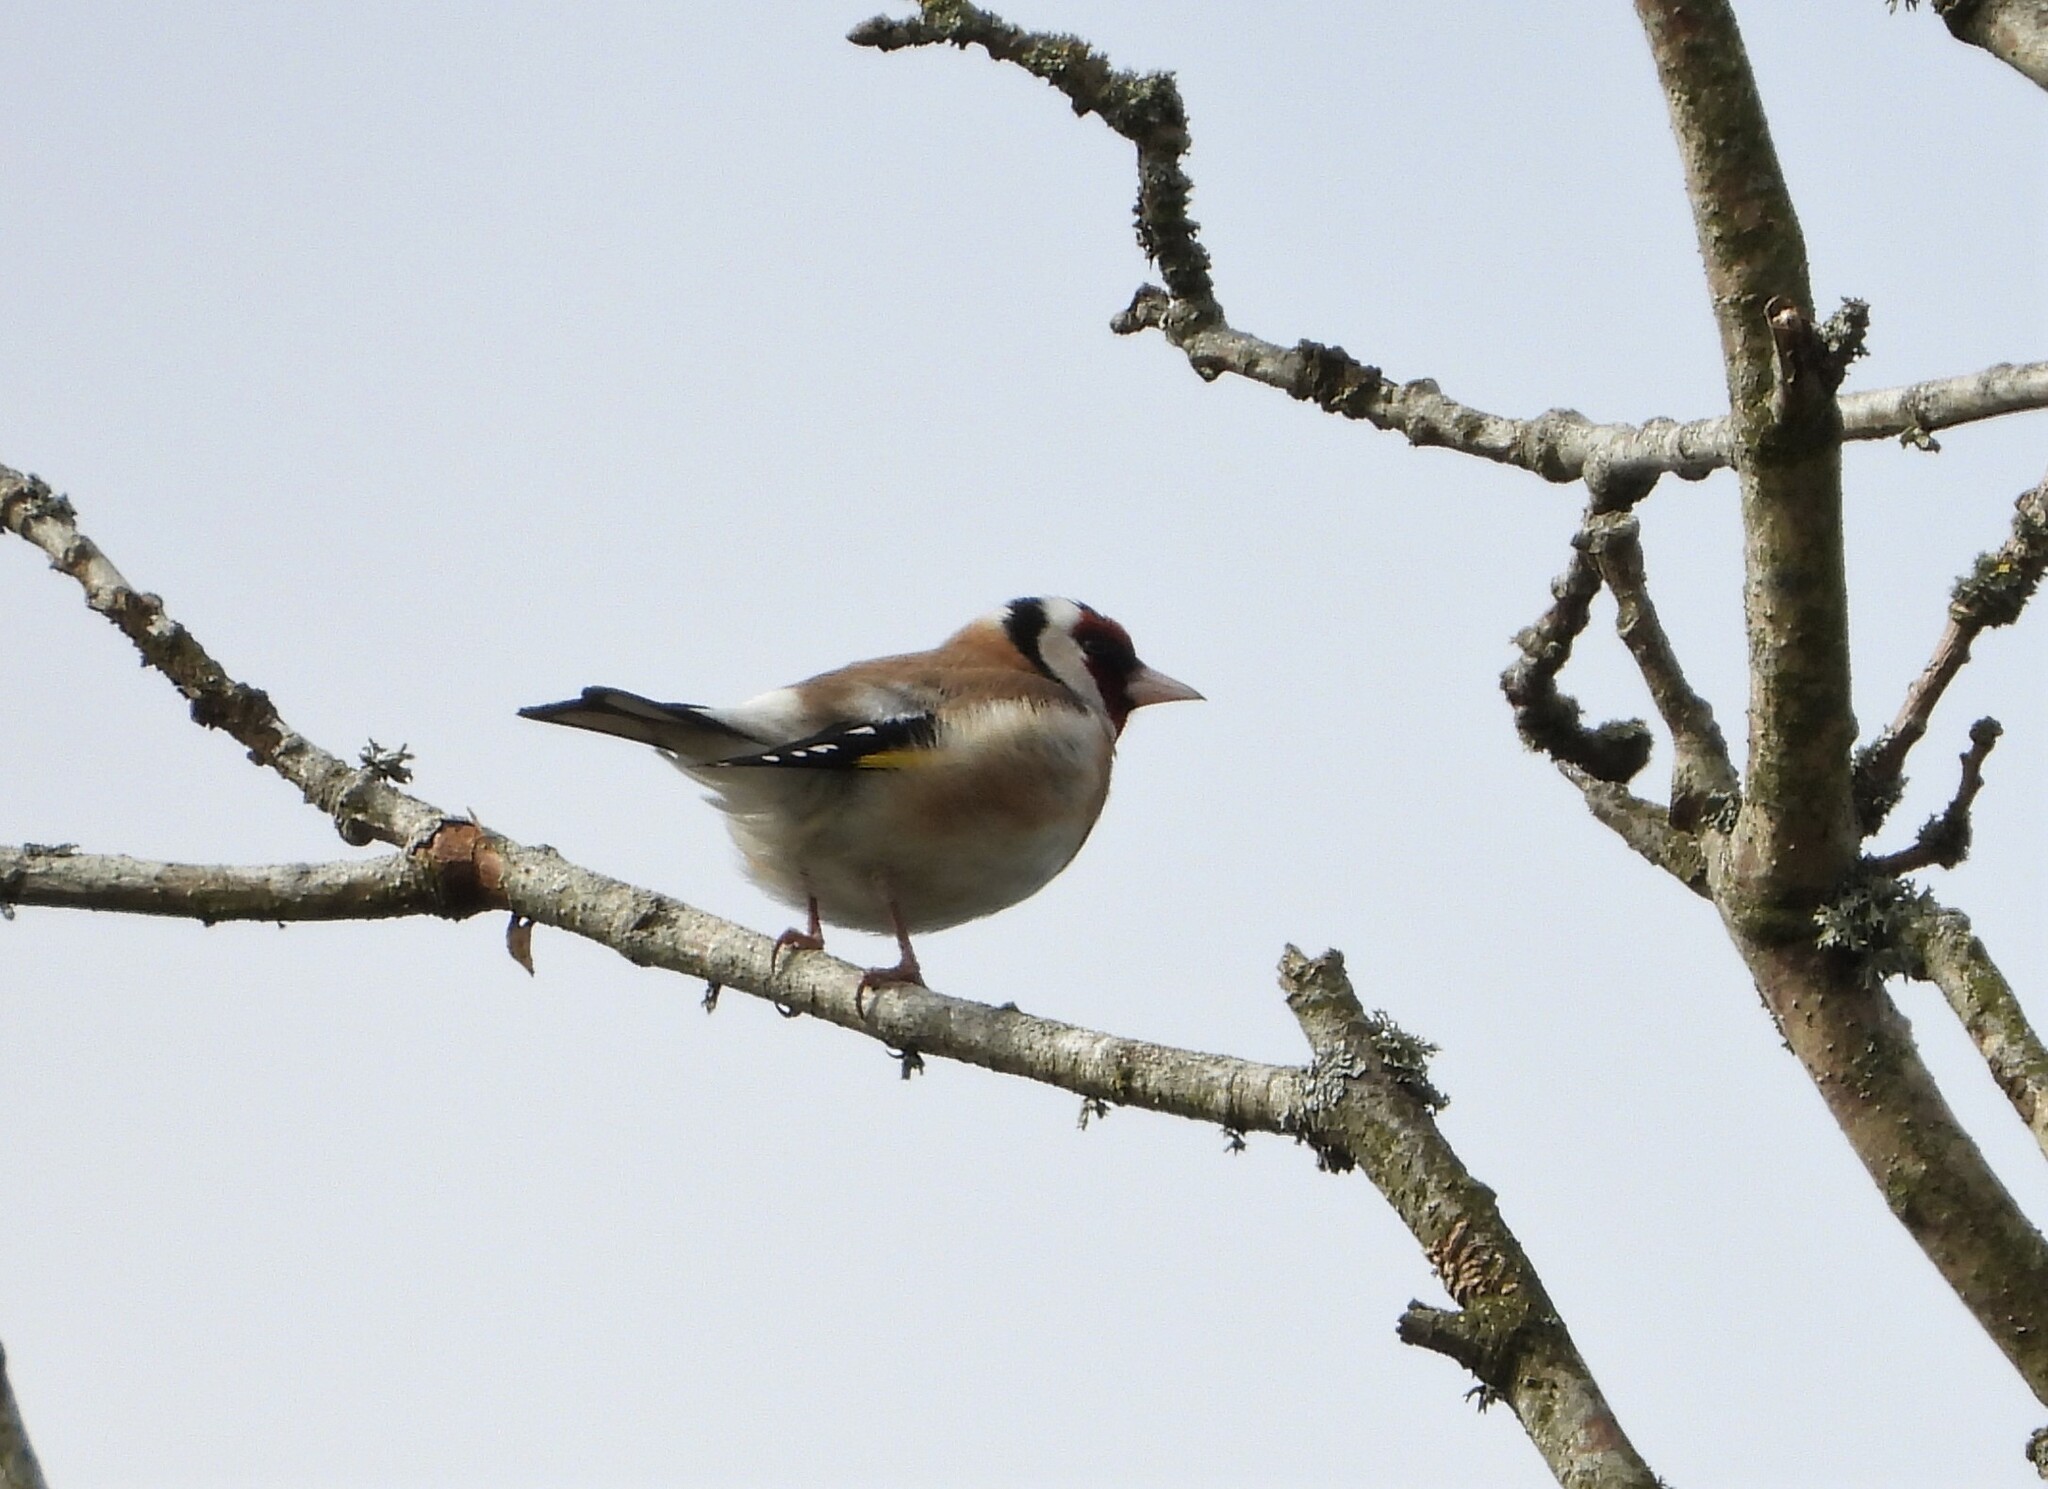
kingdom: Animalia
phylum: Chordata
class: Aves
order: Passeriformes
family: Fringillidae
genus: Carduelis
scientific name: Carduelis carduelis
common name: European goldfinch
